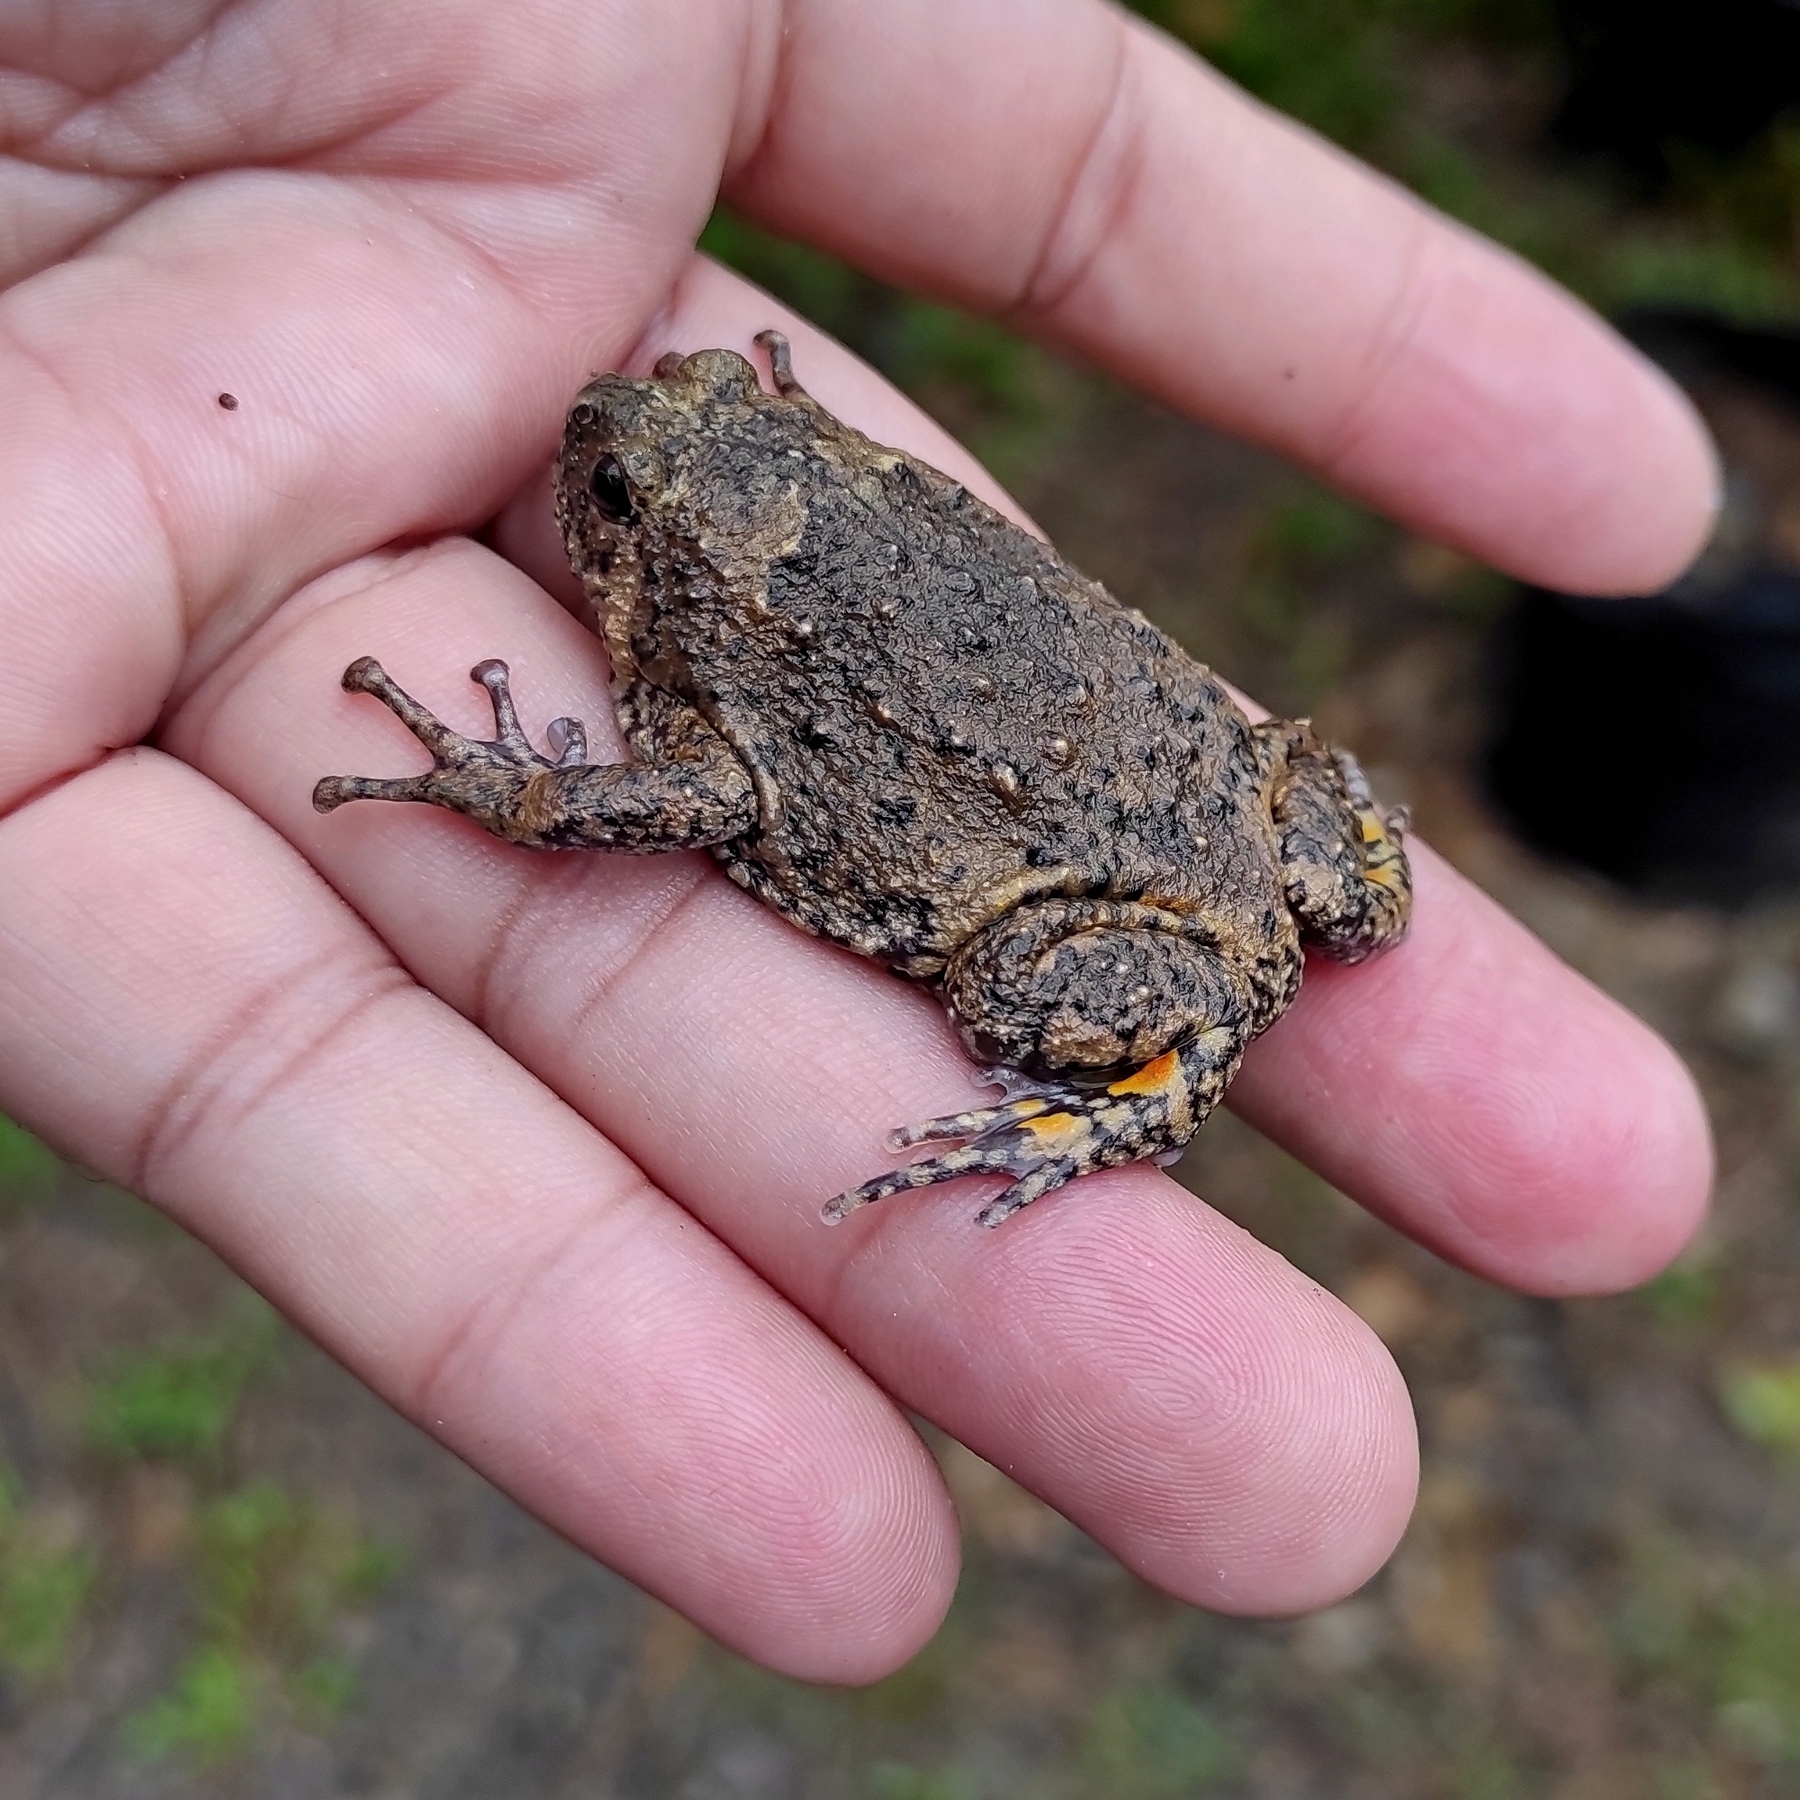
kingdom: Animalia
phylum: Chordata
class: Amphibia
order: Anura
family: Microhylidae
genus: Kaloula
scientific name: Kaloula baleata
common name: Brown,javanese bullfrog
